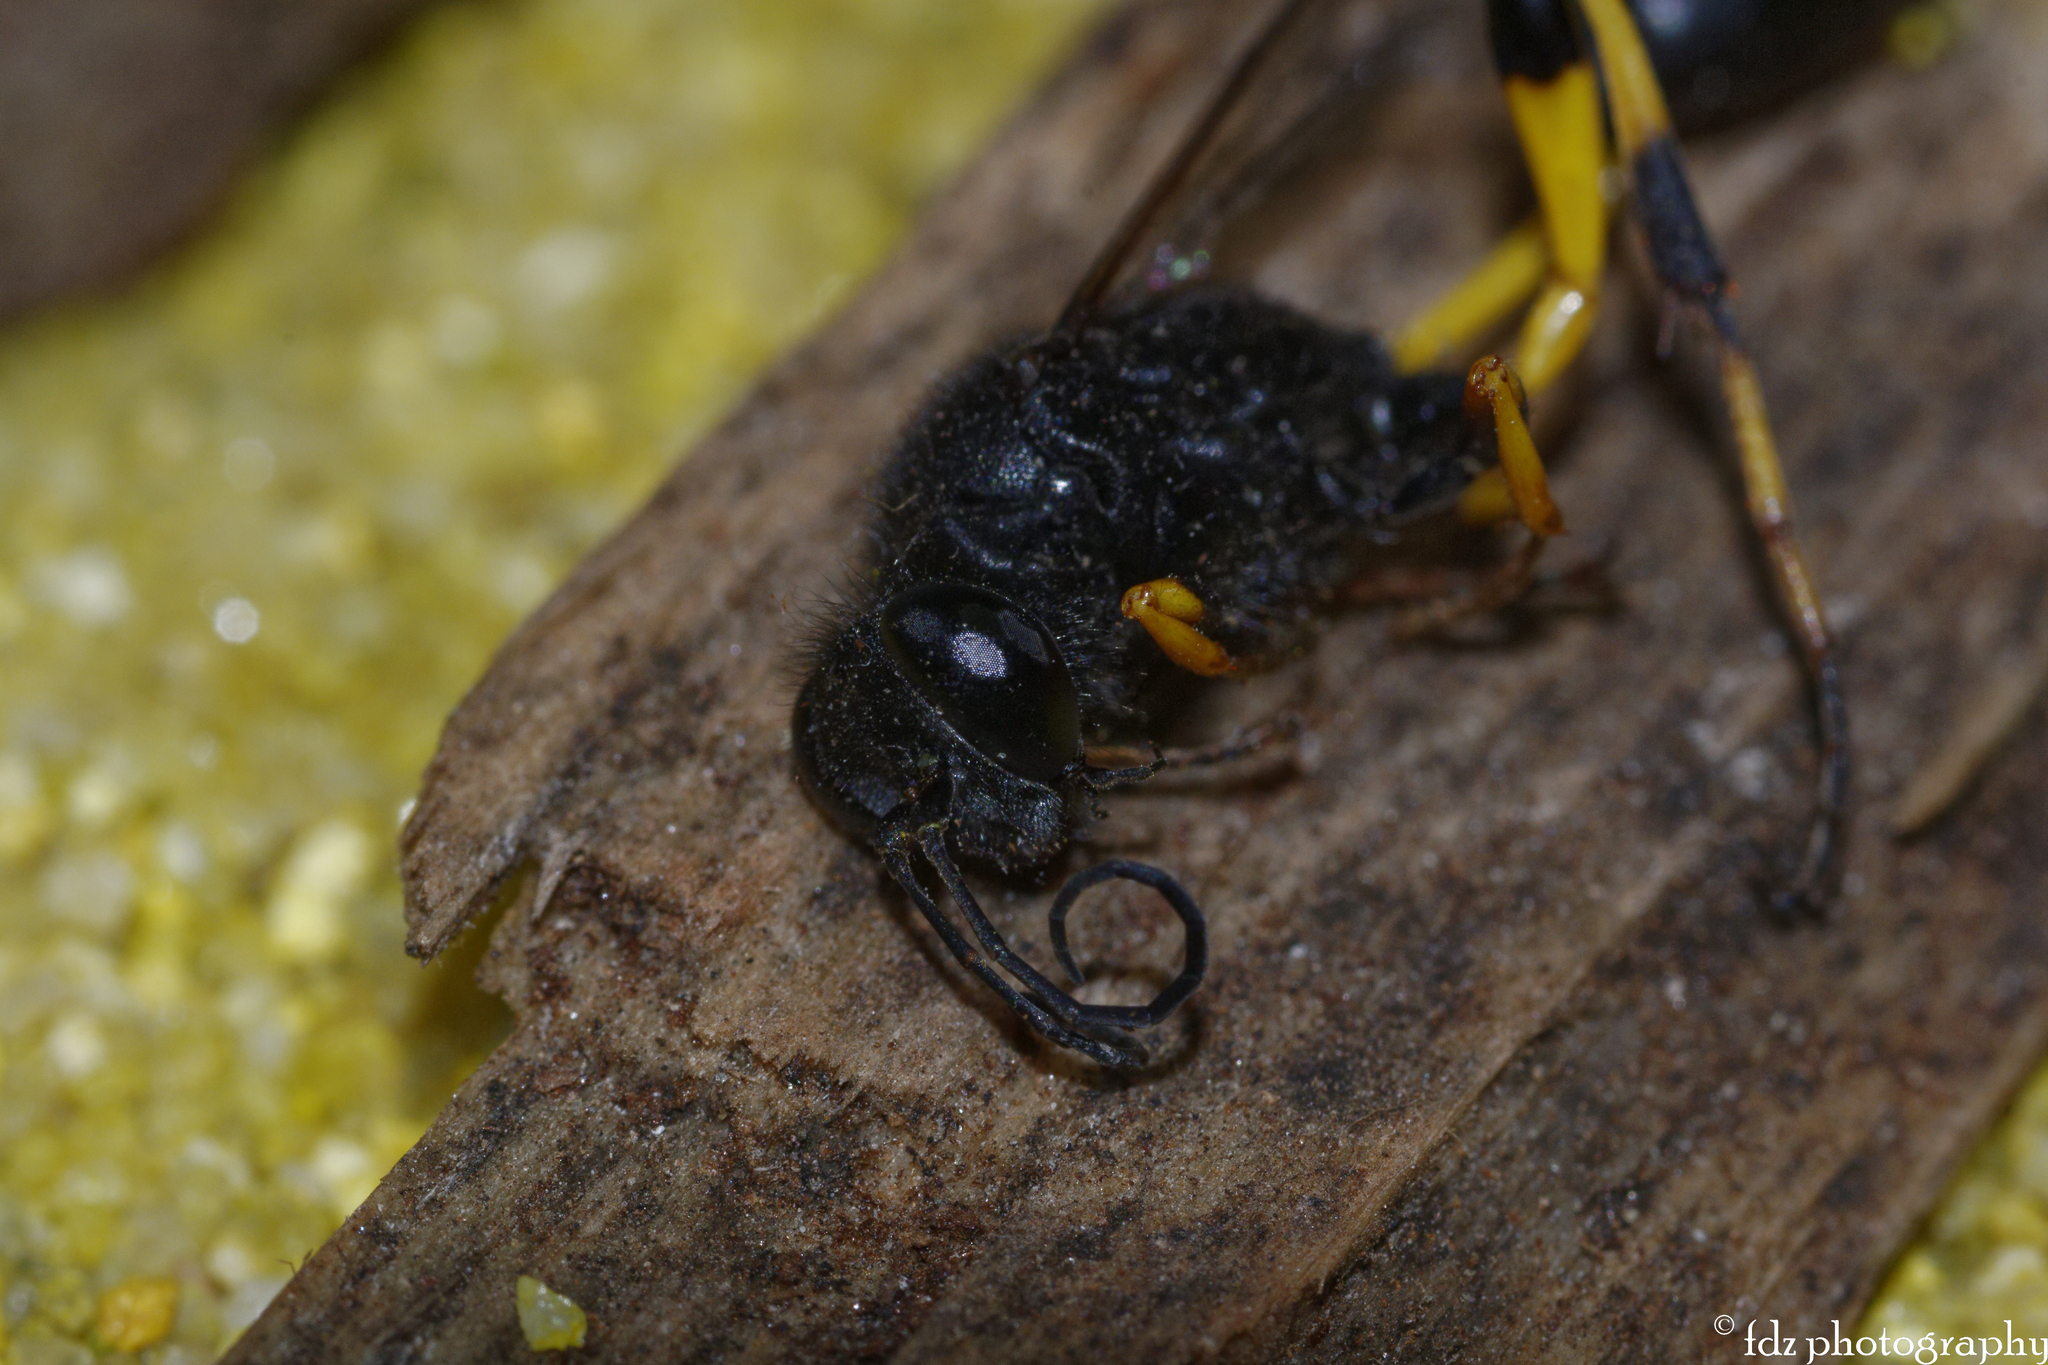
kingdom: Animalia
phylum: Arthropoda
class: Insecta
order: Hymenoptera
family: Sphecidae
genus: Sceliphron
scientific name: Sceliphron spirifex
